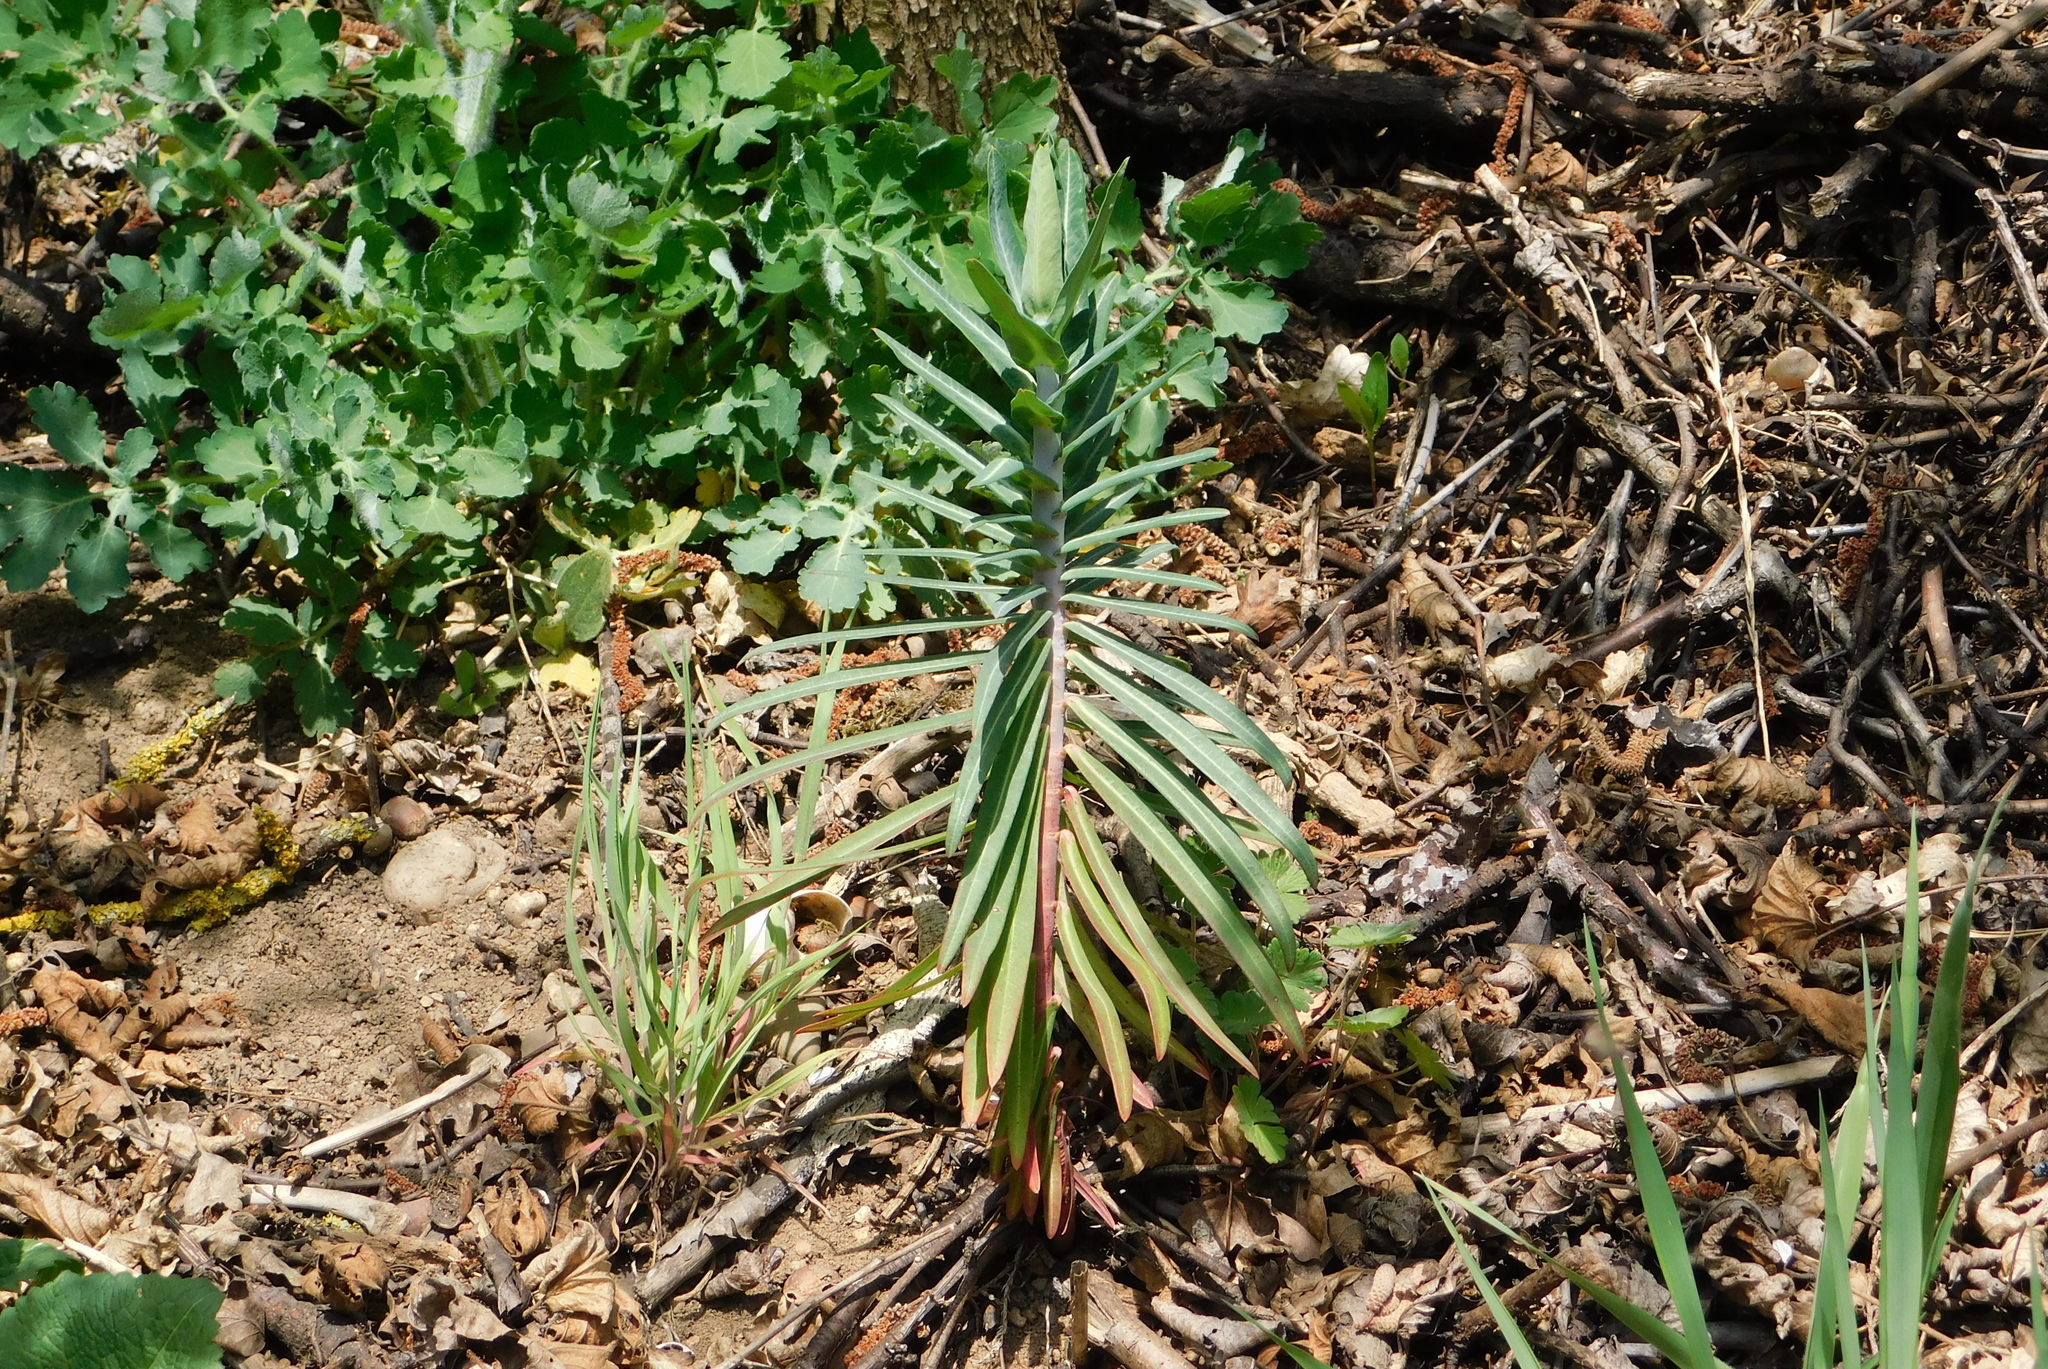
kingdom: Plantae
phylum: Tracheophyta
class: Magnoliopsida
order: Malpighiales
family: Euphorbiaceae
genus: Euphorbia
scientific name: Euphorbia lathyris
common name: Caper spurge
